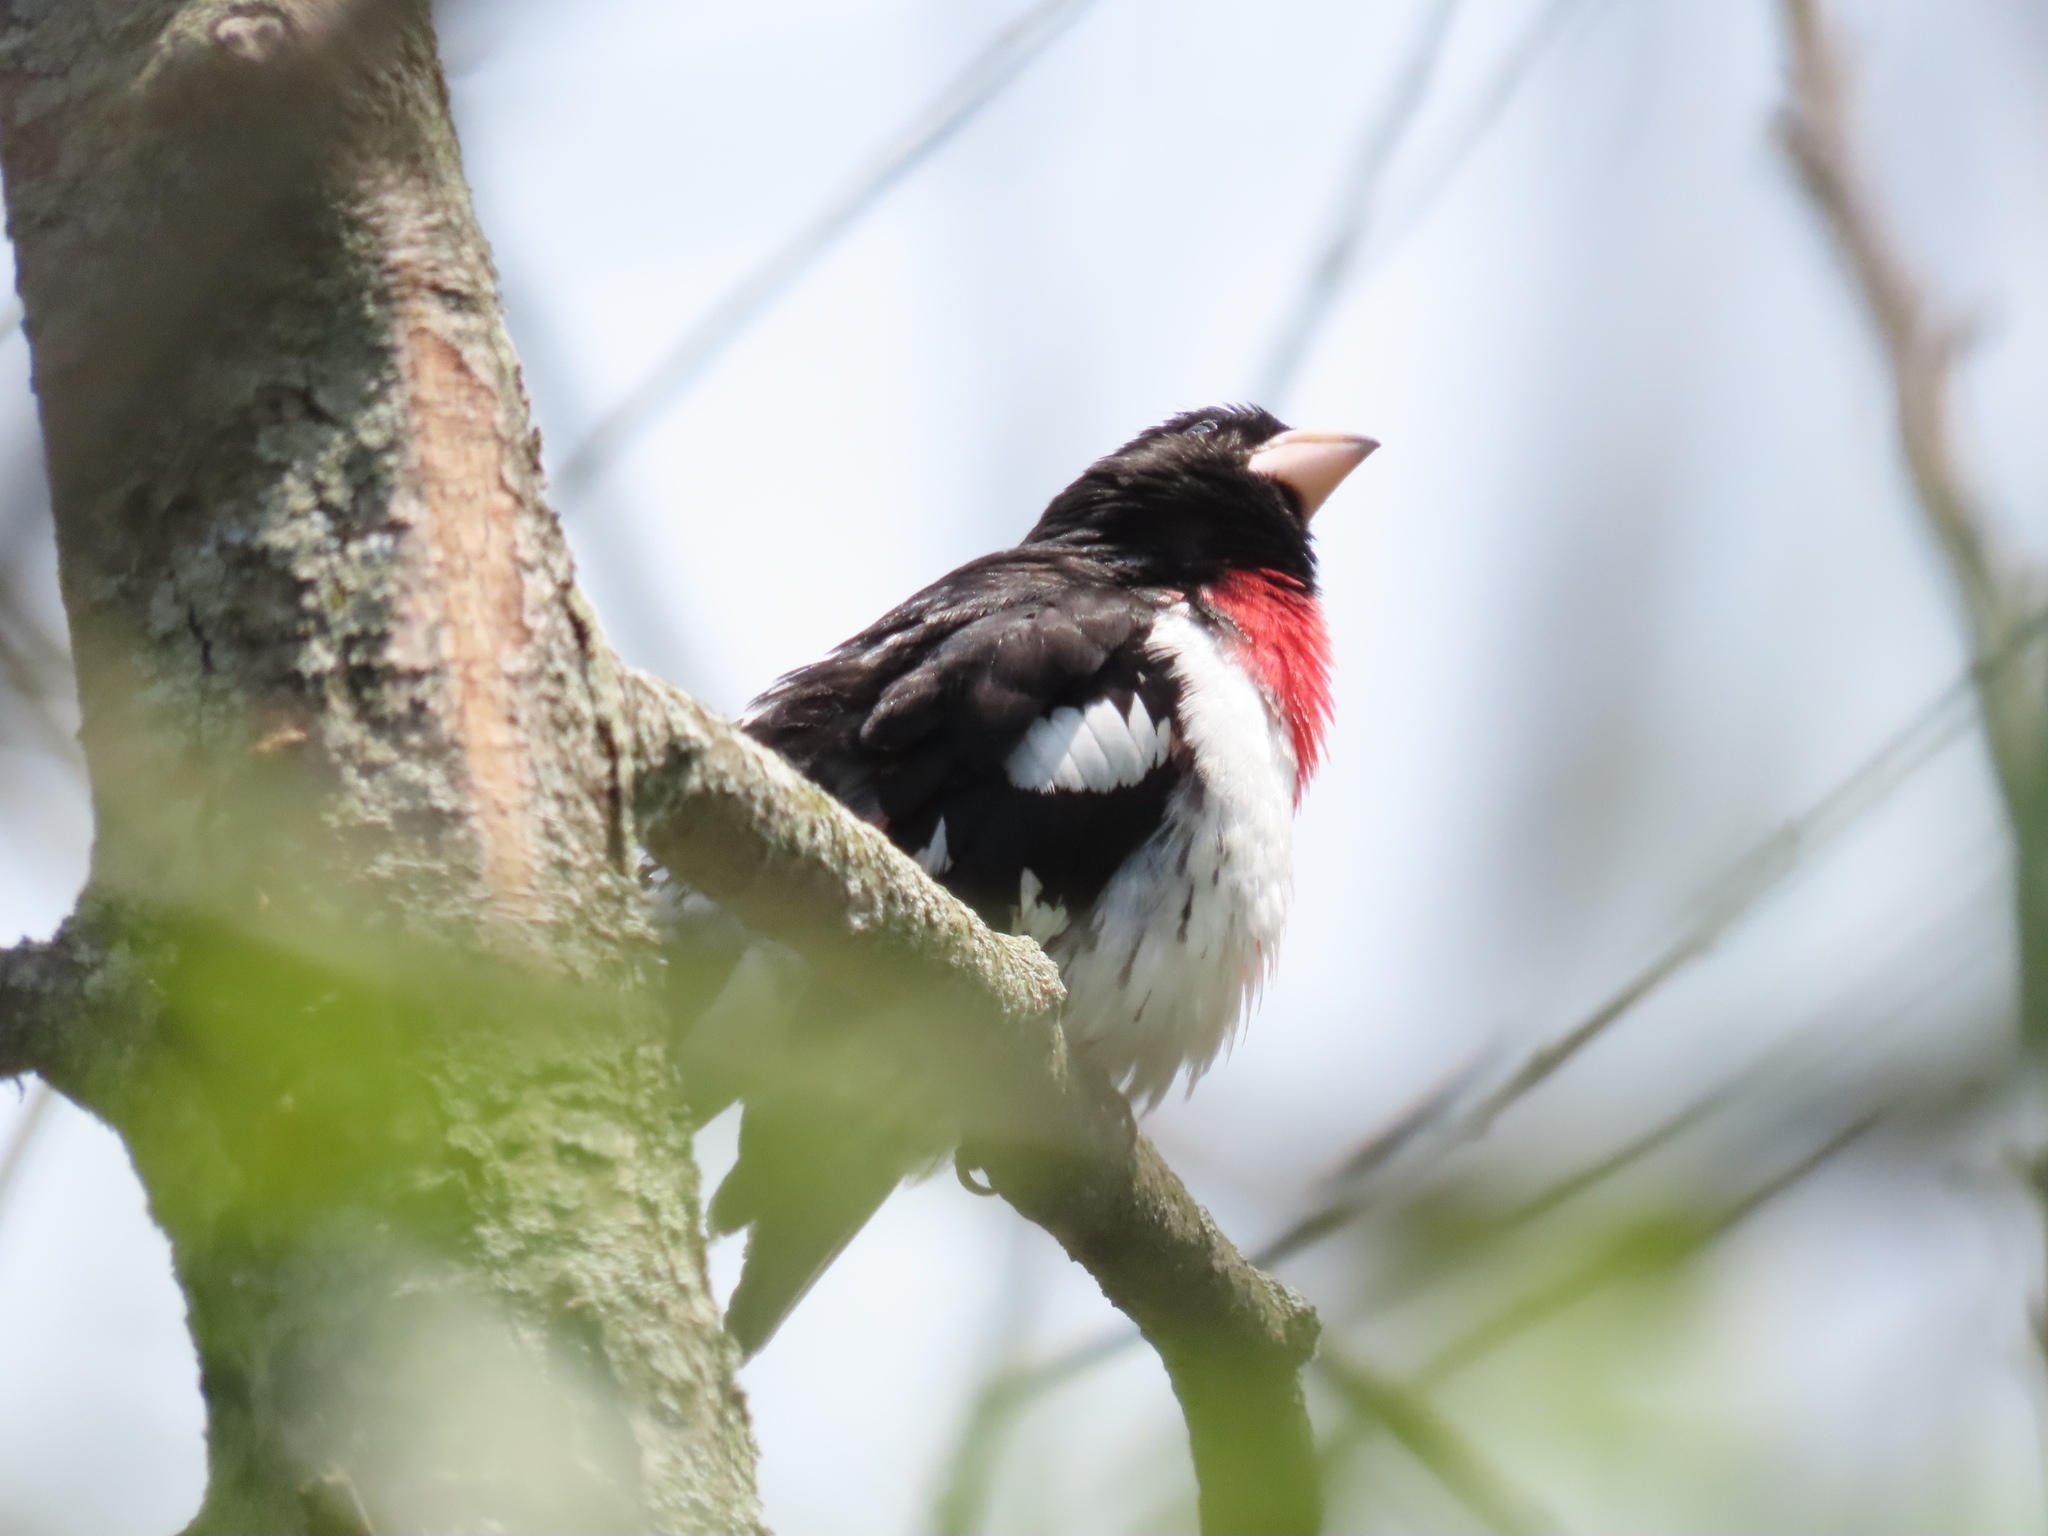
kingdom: Animalia
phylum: Chordata
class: Aves
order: Passeriformes
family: Cardinalidae
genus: Pheucticus
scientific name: Pheucticus ludovicianus
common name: Rose-breasted grosbeak
